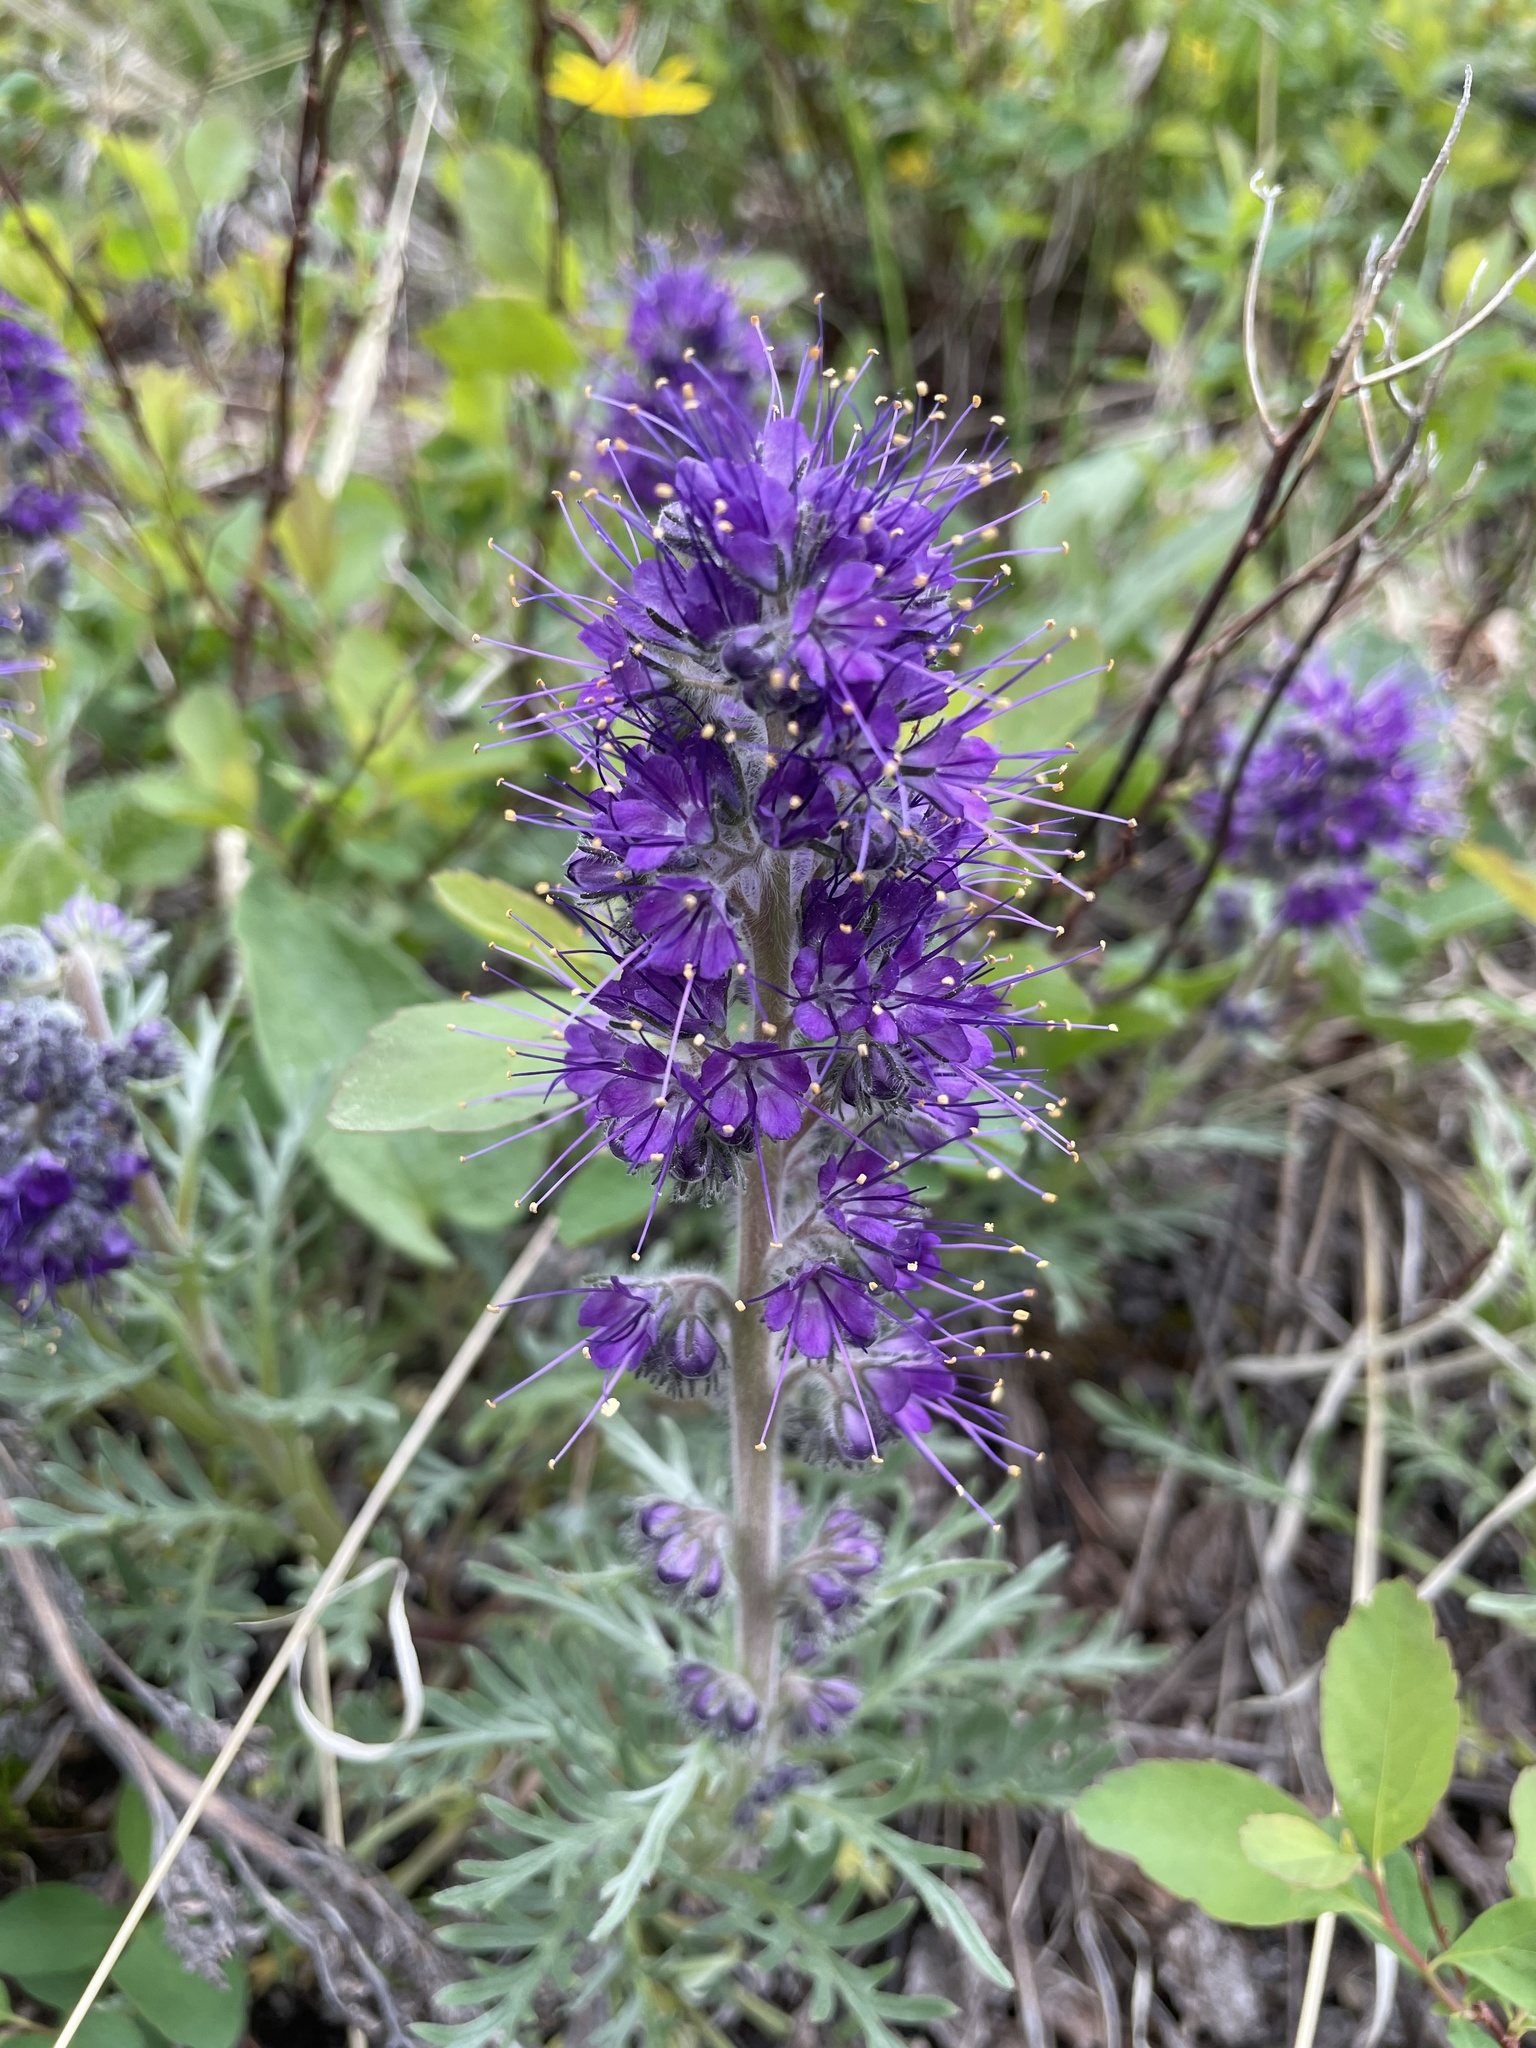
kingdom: Plantae
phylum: Tracheophyta
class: Magnoliopsida
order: Boraginales
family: Hydrophyllaceae
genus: Phacelia
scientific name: Phacelia sericea
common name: Silky phacelia
